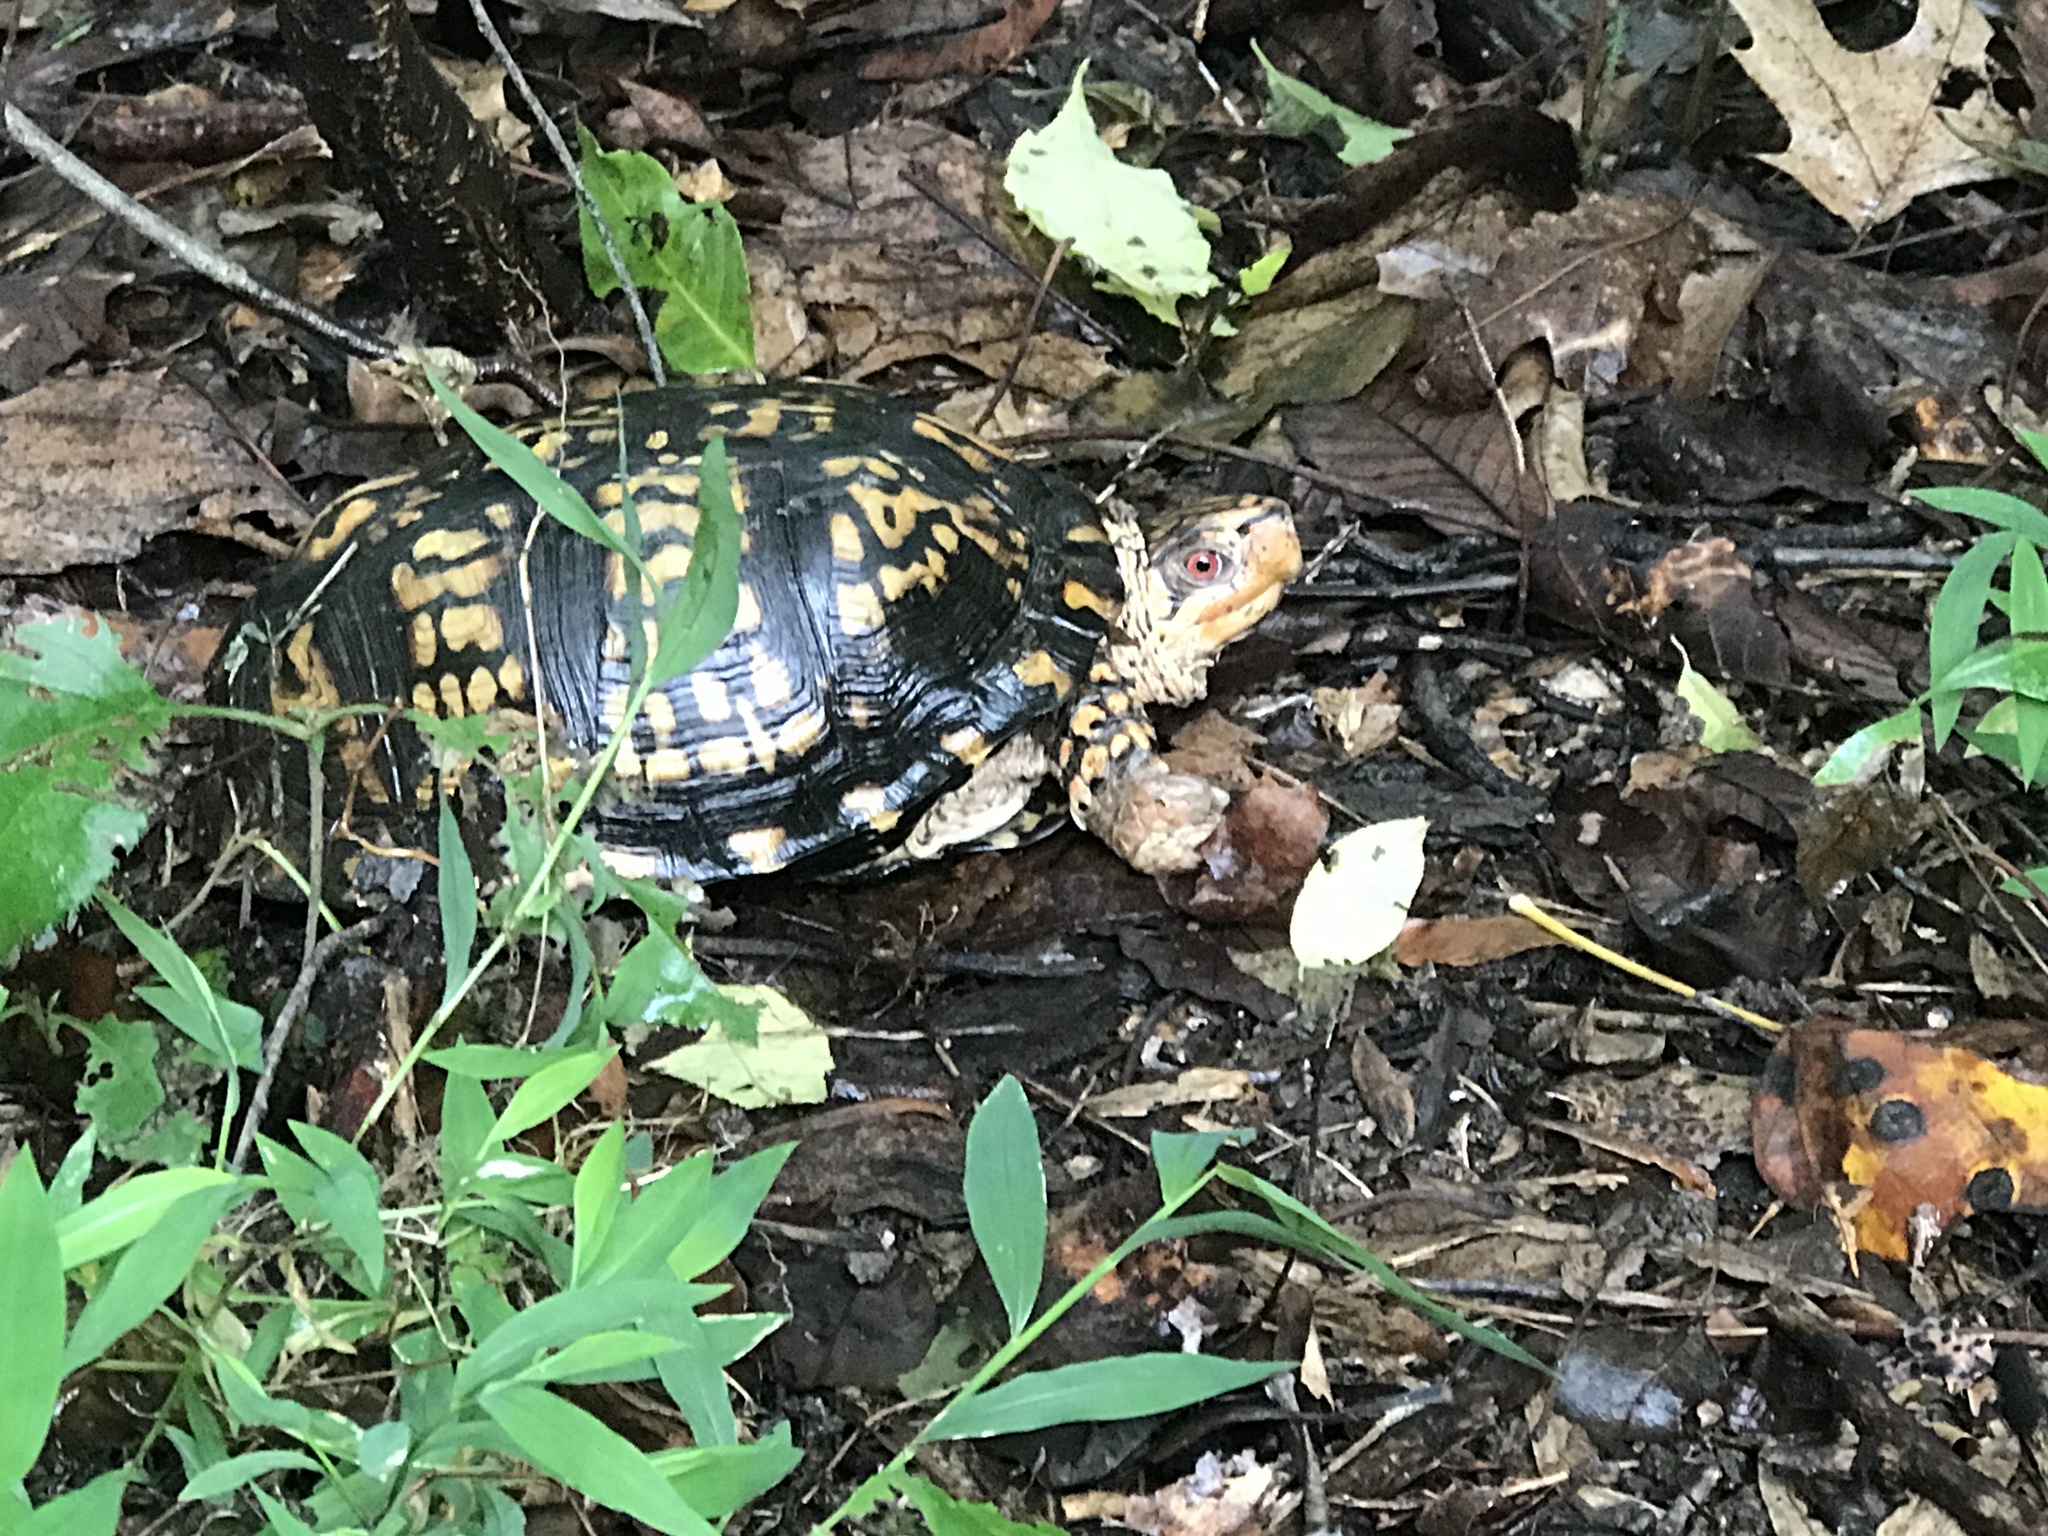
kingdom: Animalia
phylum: Chordata
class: Testudines
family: Emydidae
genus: Terrapene
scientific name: Terrapene carolina
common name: Common box turtle
